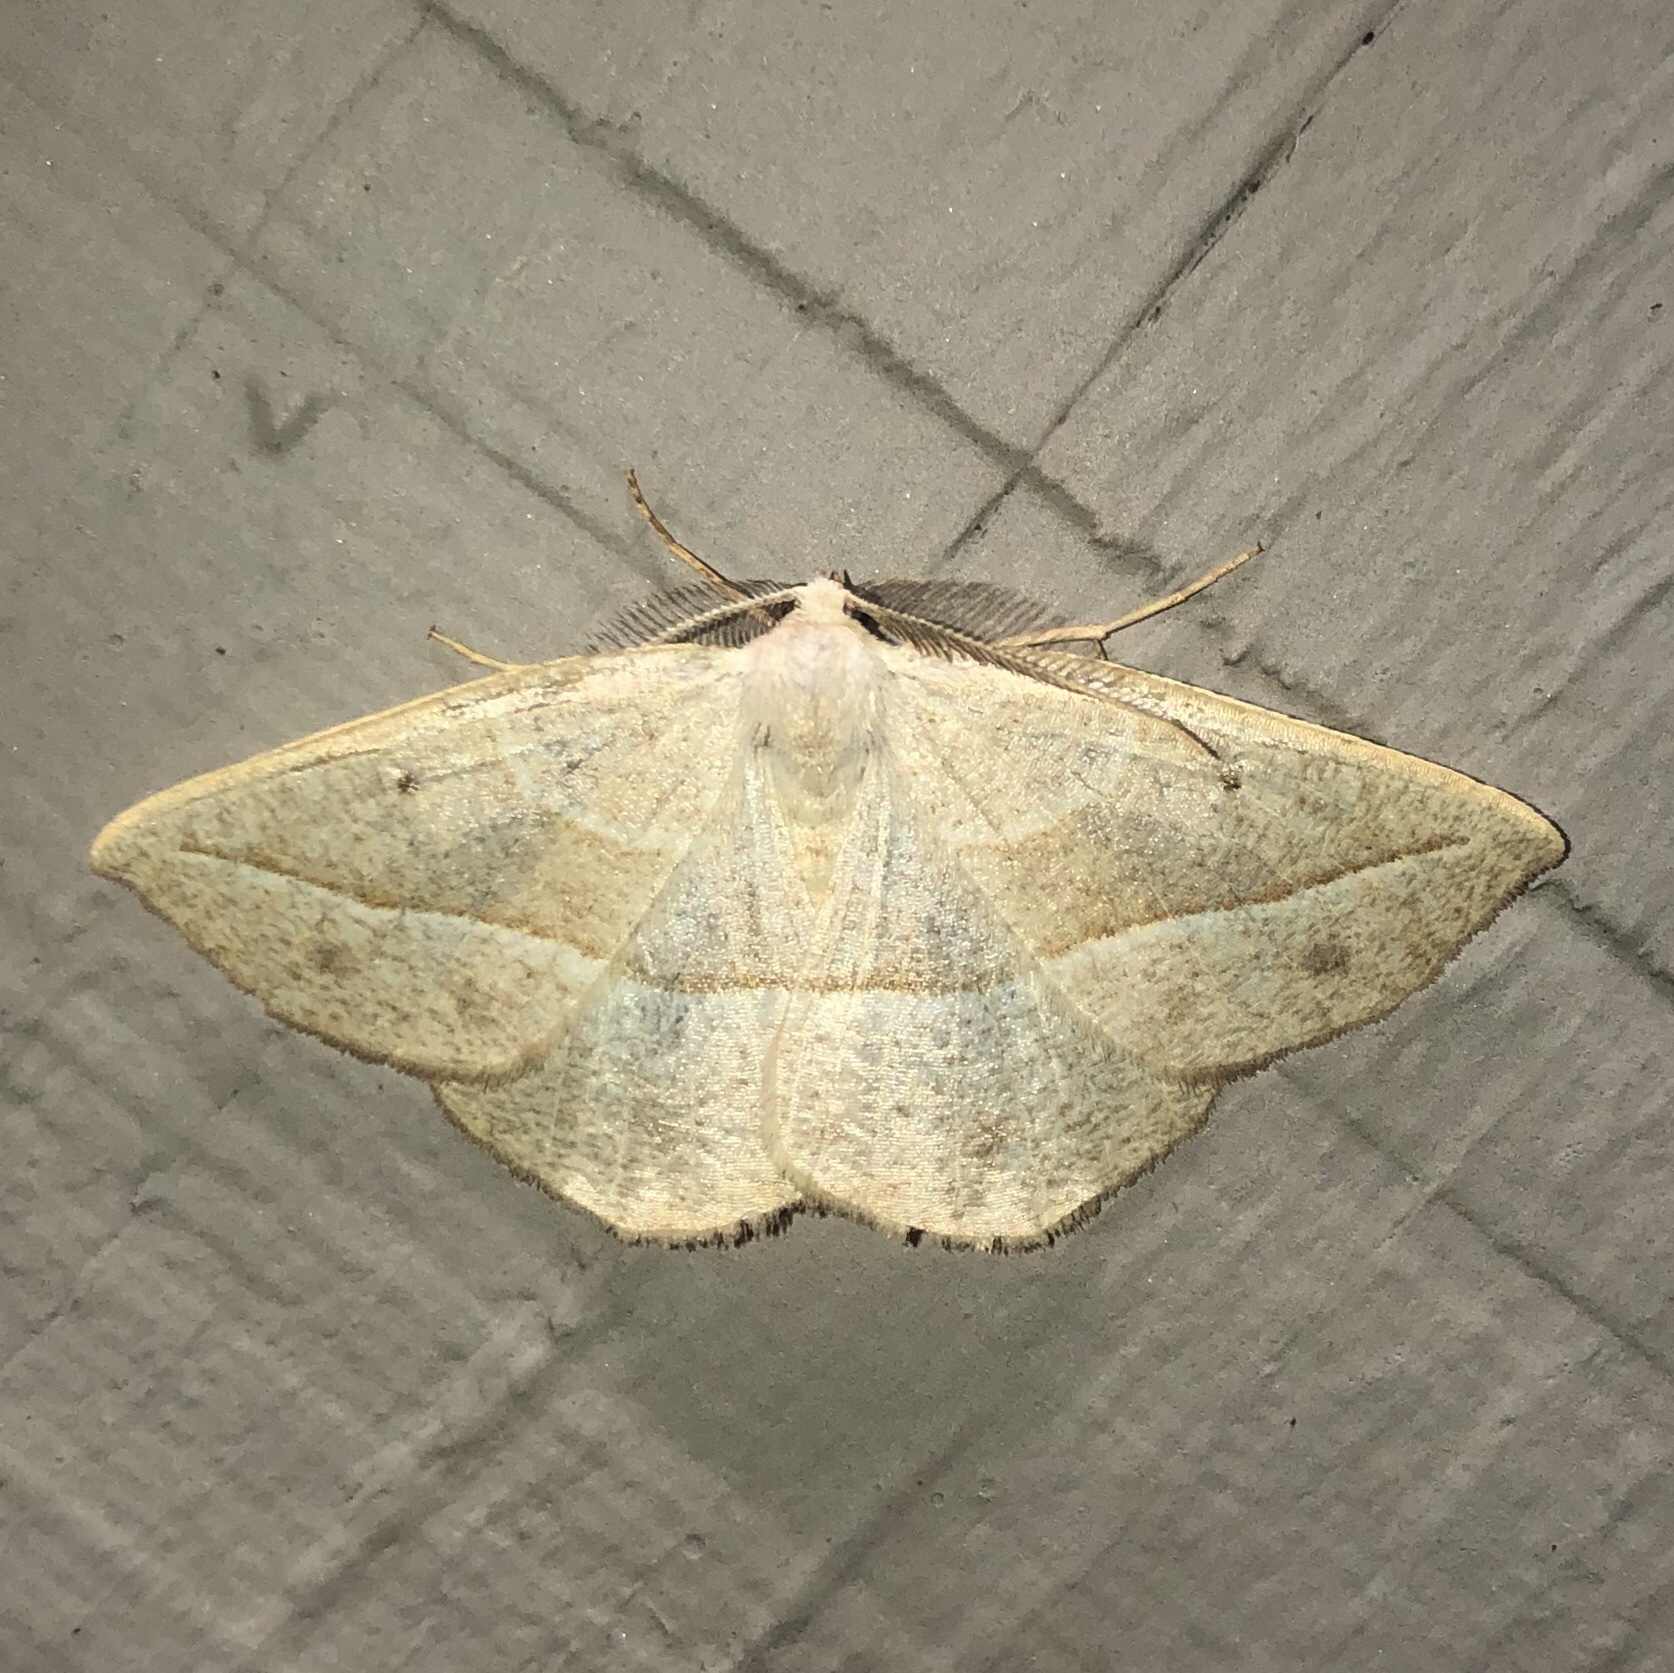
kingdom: Animalia
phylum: Arthropoda
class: Insecta
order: Lepidoptera
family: Geometridae
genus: Eusarca
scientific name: Eusarca confusaria
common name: Confused eusarca
